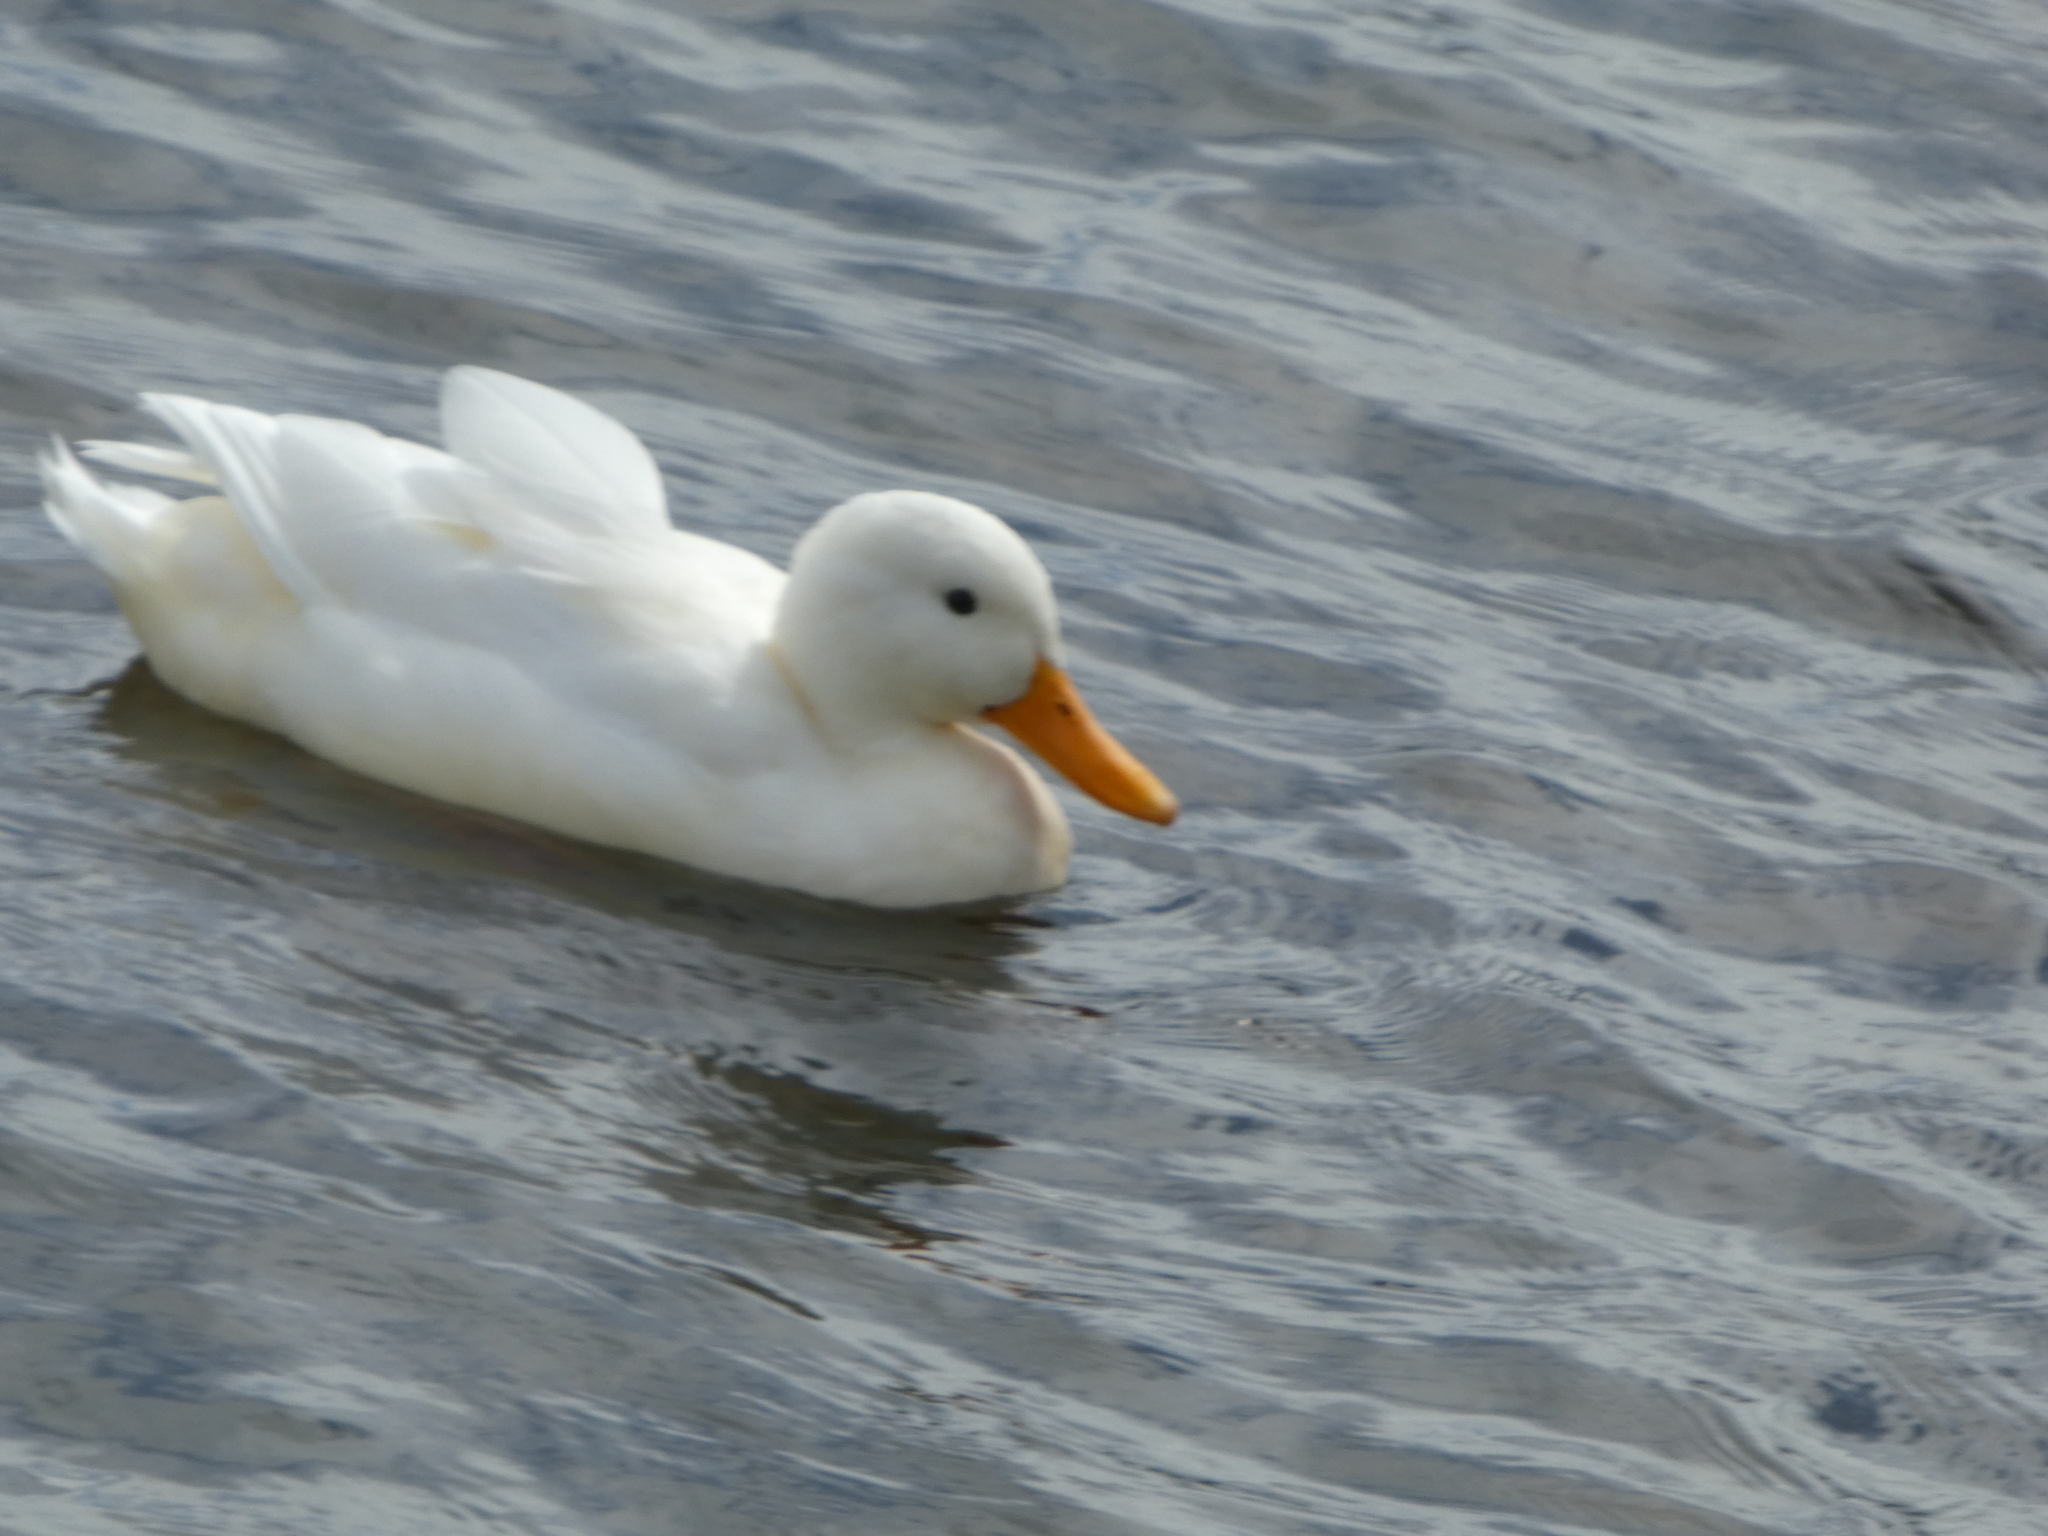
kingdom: Animalia
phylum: Chordata
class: Aves
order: Anseriformes
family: Anatidae
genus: Anas
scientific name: Anas platyrhynchos
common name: Mallard
